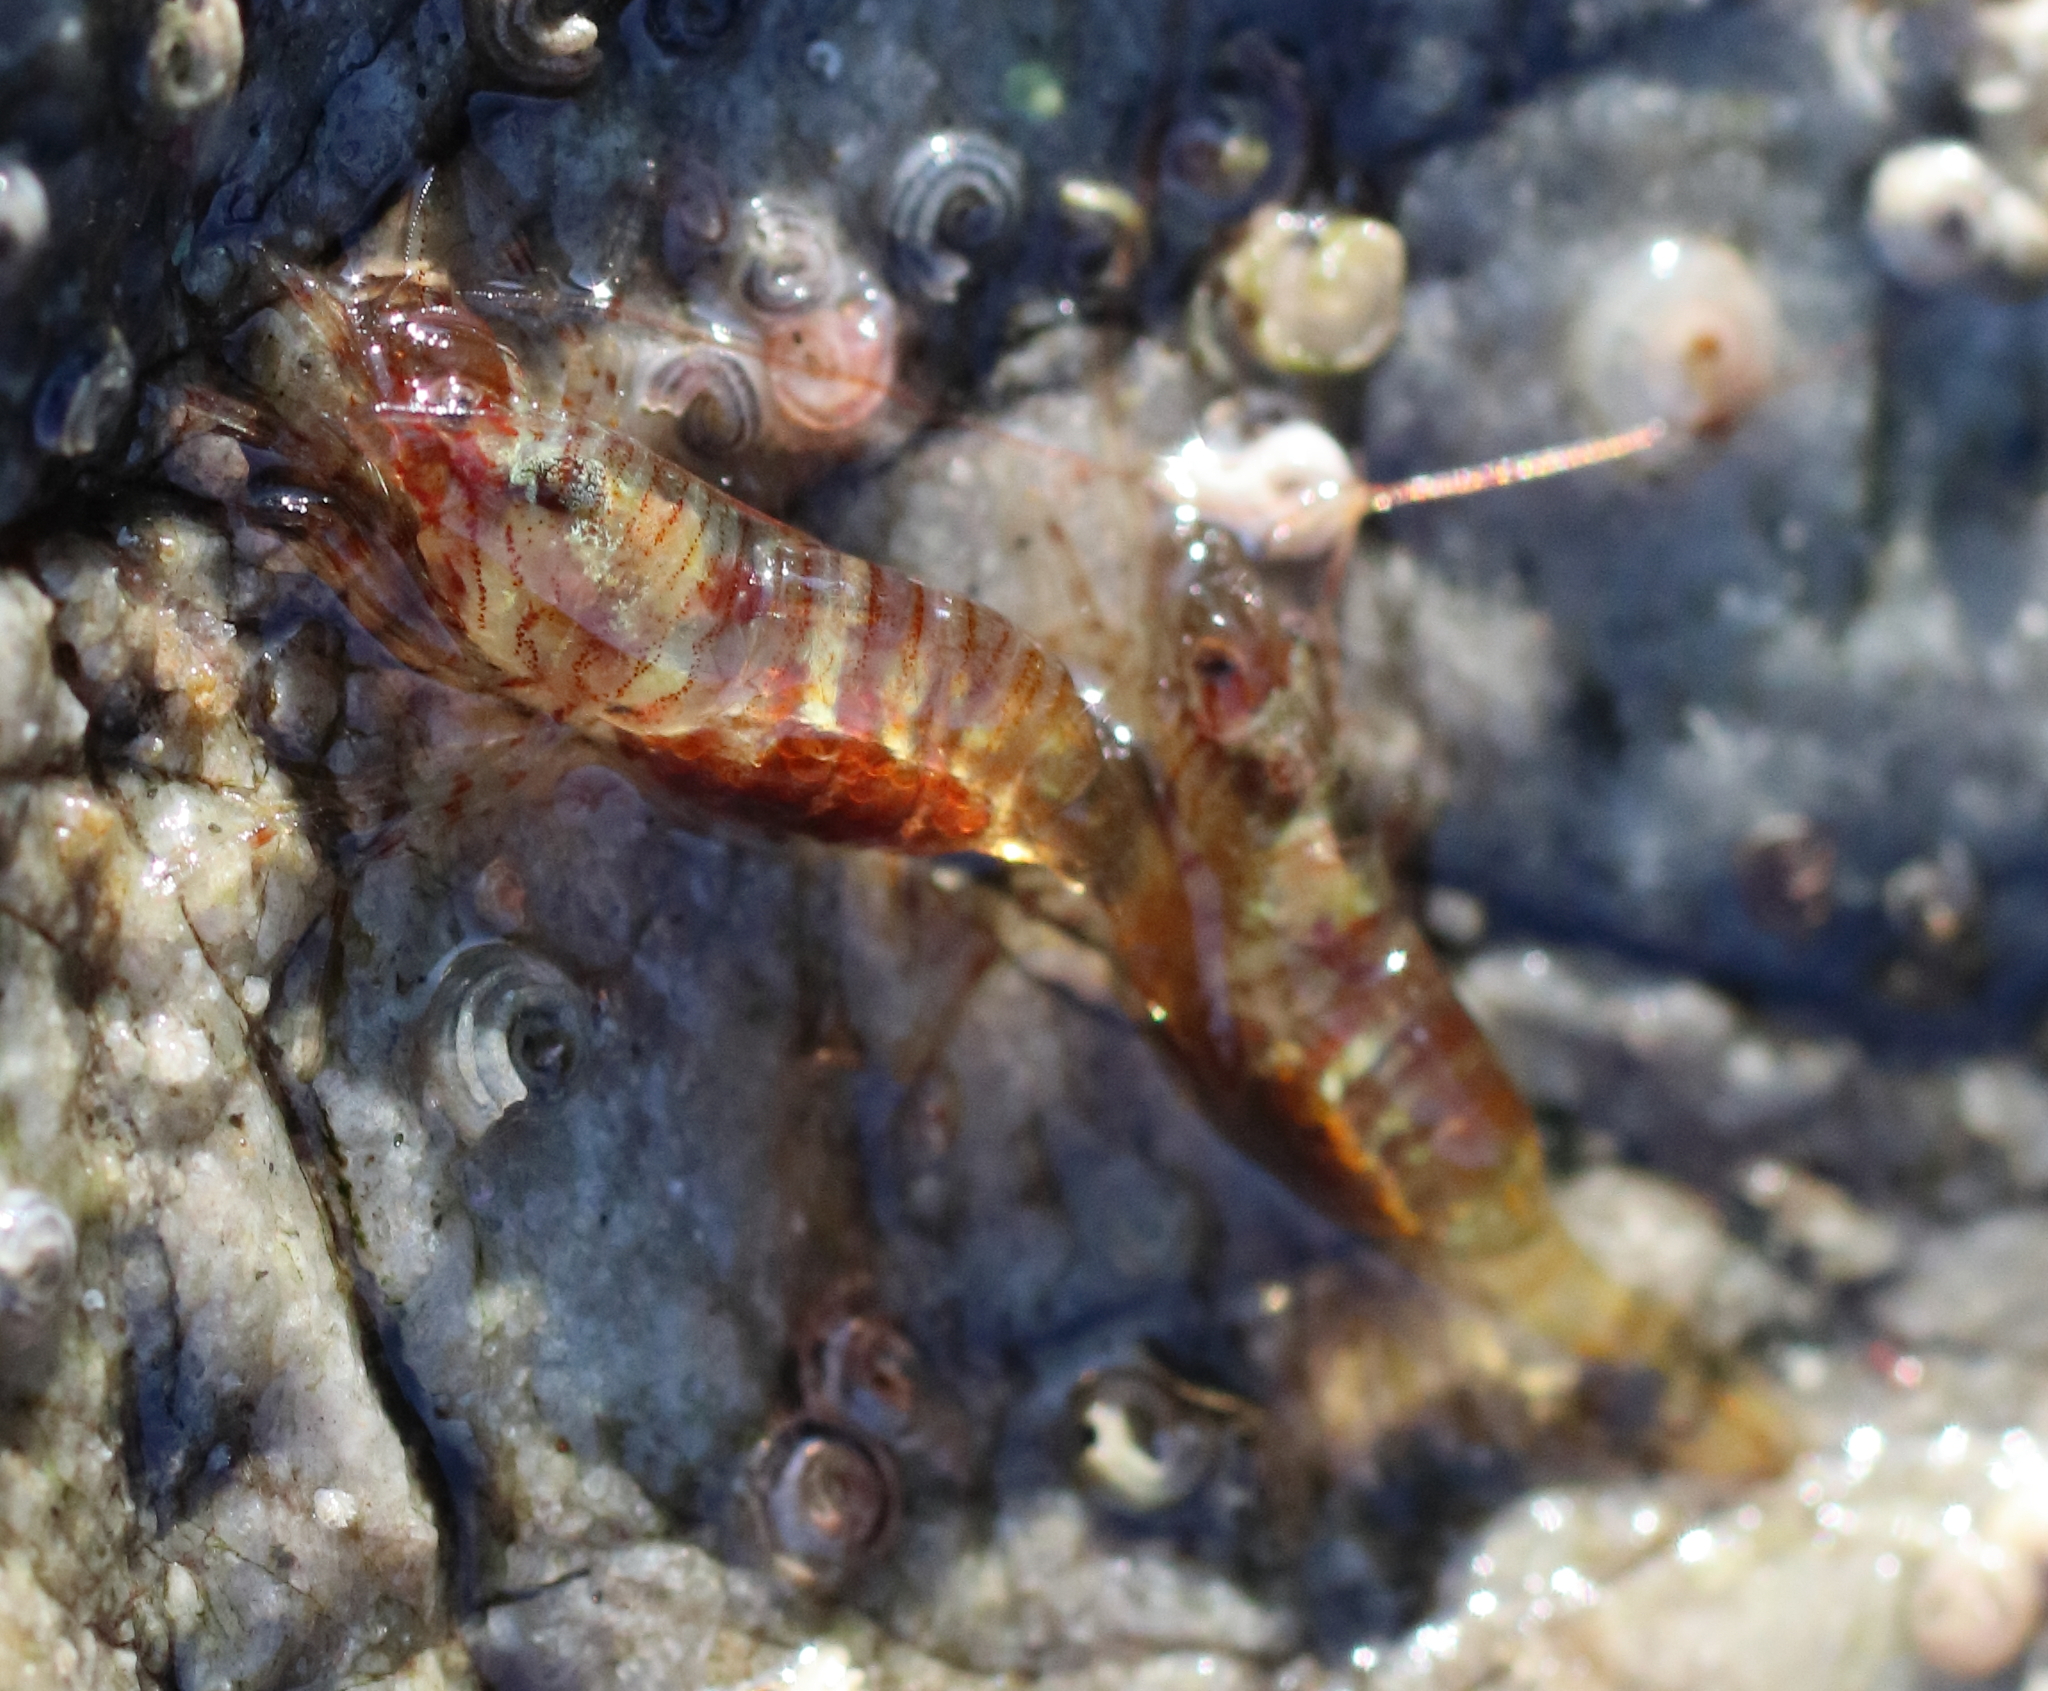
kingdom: Animalia
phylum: Arthropoda
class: Malacostraca
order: Decapoda
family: Thoridae
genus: Heptacarpus
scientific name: Heptacarpus pugettensis
